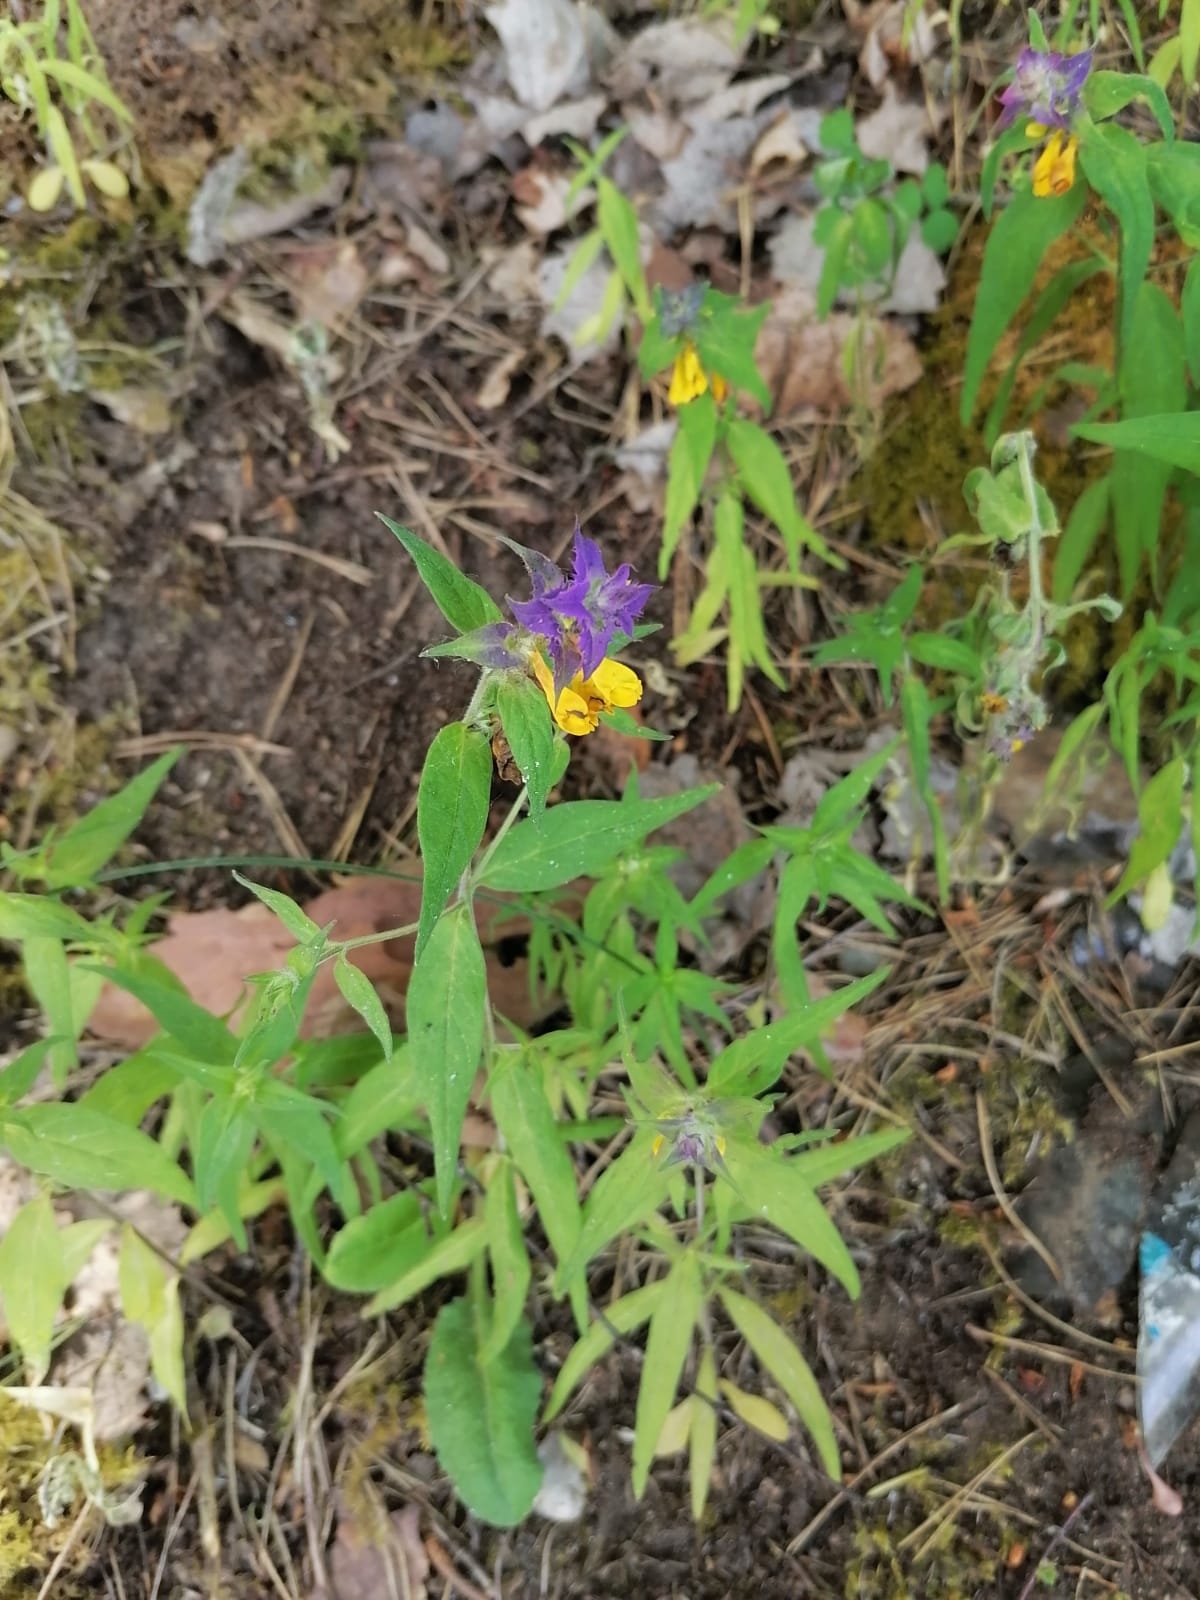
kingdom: Plantae
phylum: Tracheophyta
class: Magnoliopsida
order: Lamiales
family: Orobanchaceae
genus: Melampyrum
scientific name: Melampyrum nemorosum
